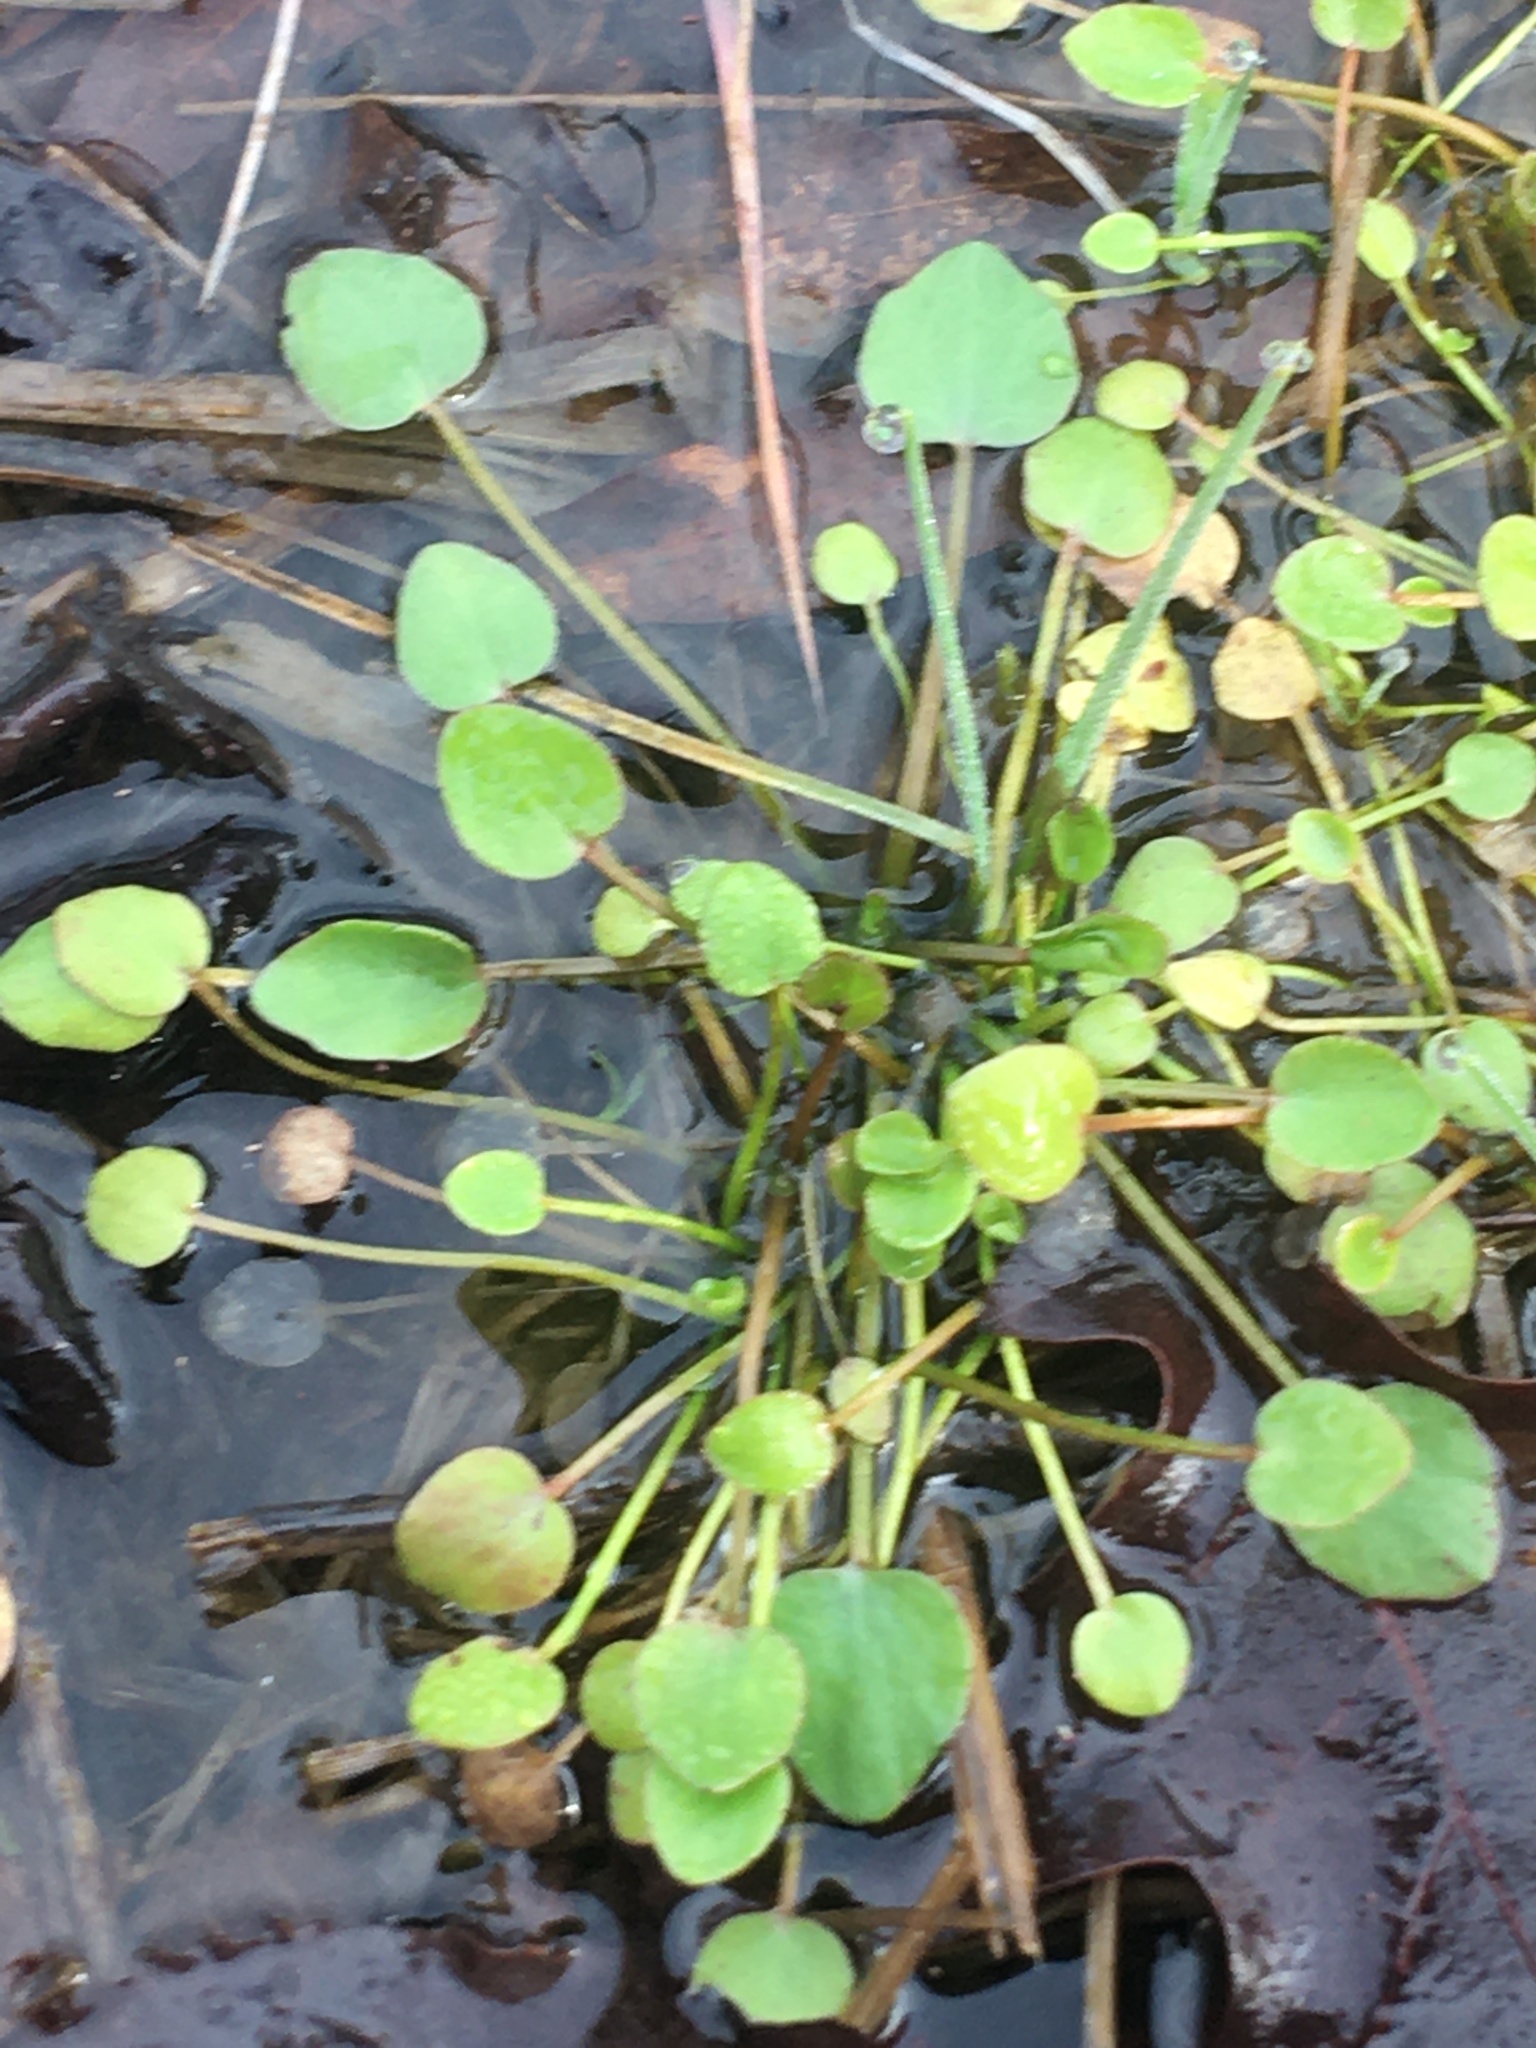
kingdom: Plantae
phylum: Tracheophyta
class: Magnoliopsida
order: Ranunculales
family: Ranunculaceae
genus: Ranunculus
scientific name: Ranunculus pusillus
